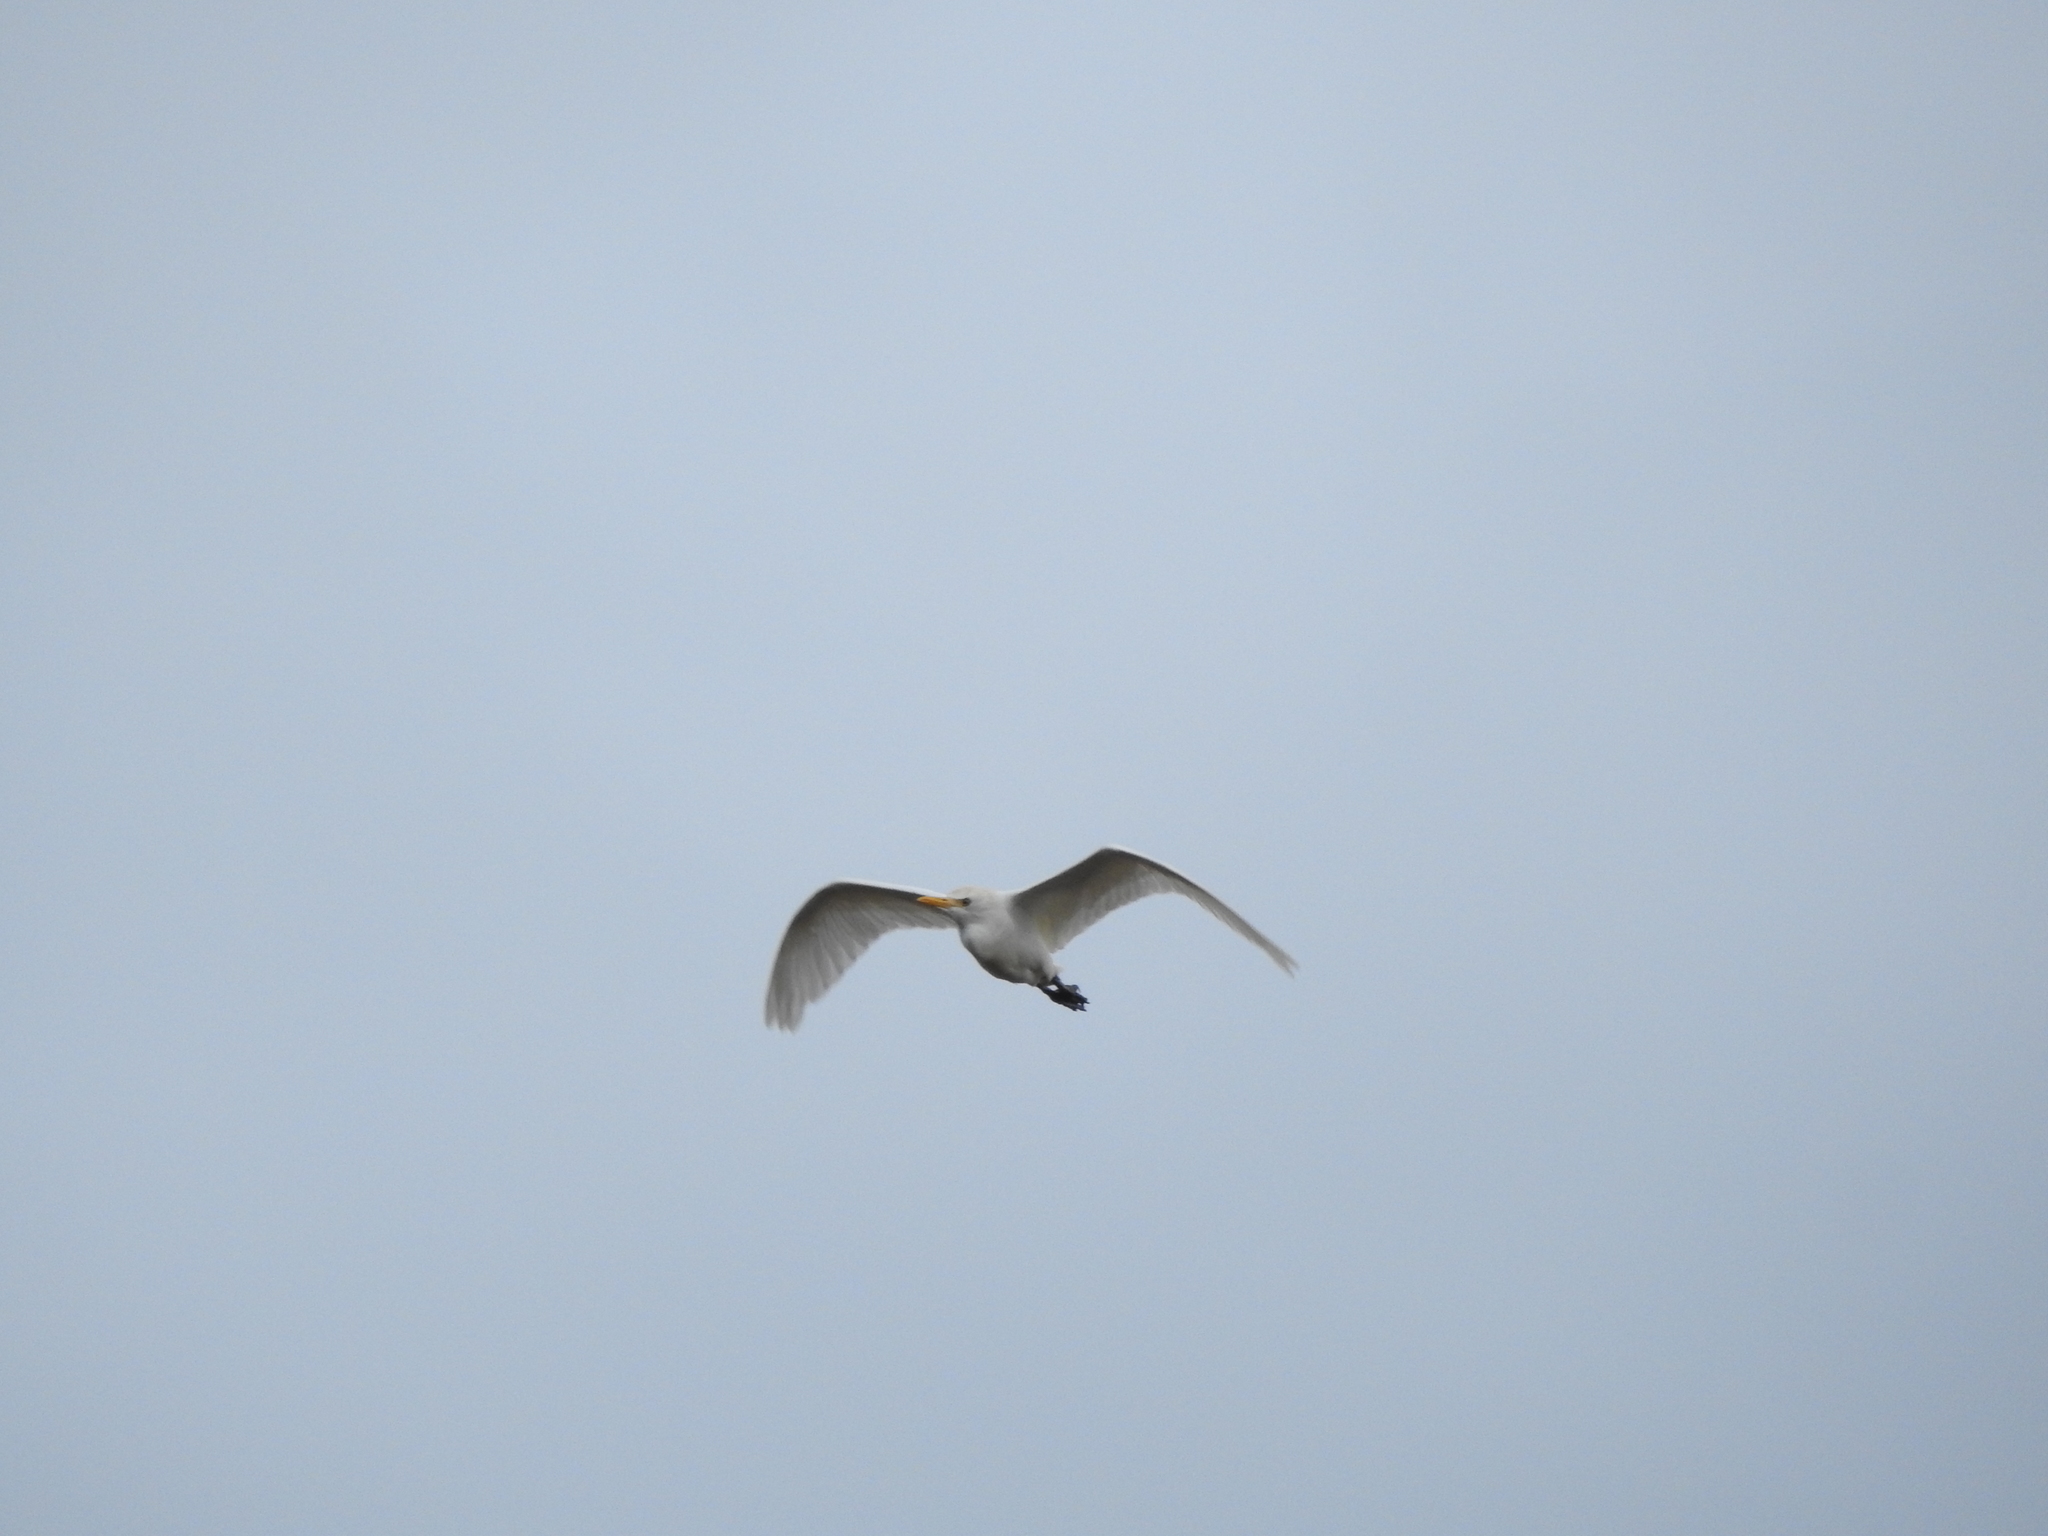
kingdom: Animalia
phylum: Chordata
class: Aves
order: Pelecaniformes
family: Ardeidae
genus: Bubulcus
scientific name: Bubulcus ibis
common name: Cattle egret
